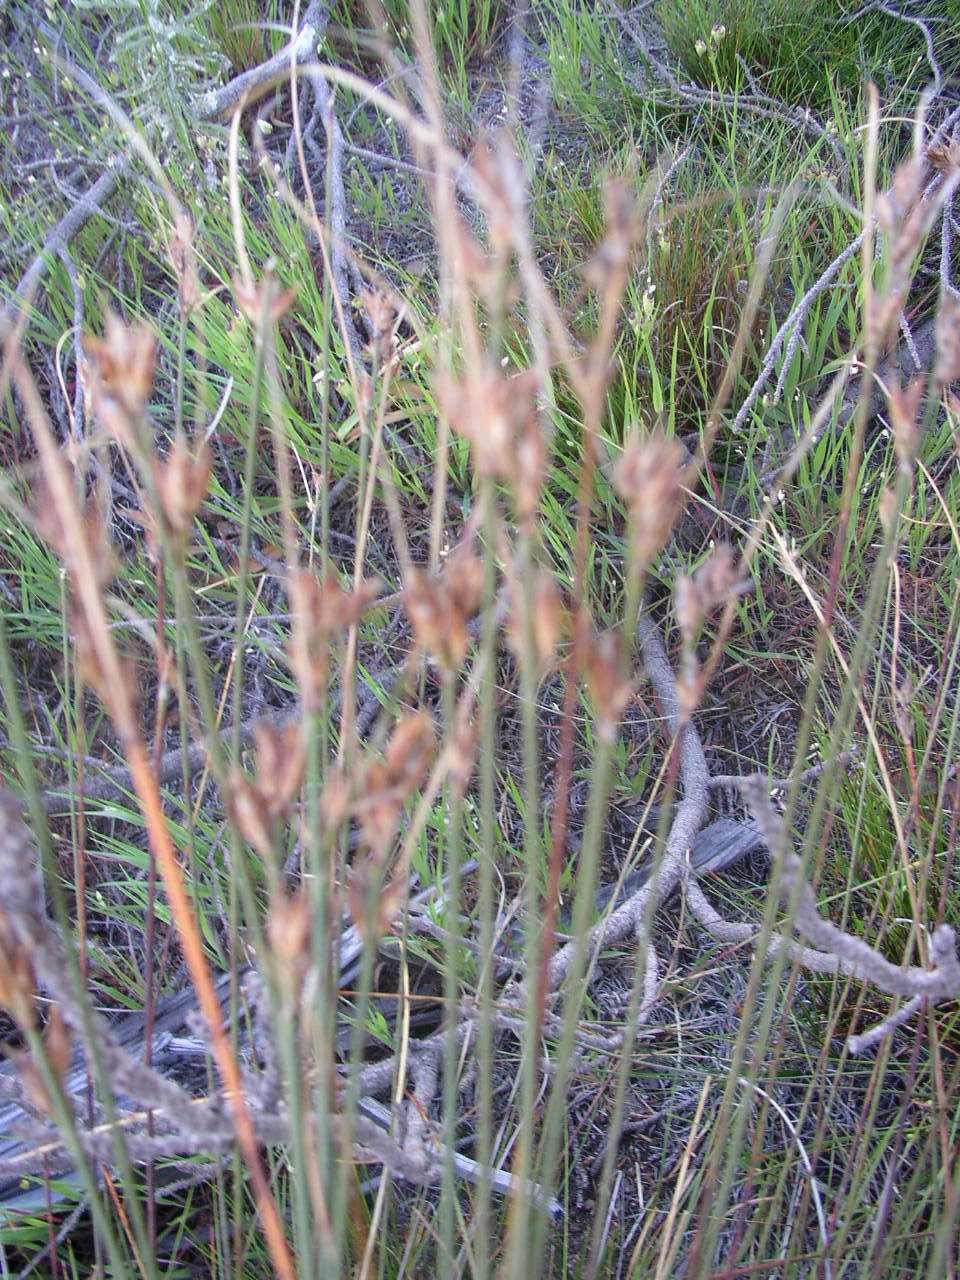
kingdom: Plantae
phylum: Tracheophyta
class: Liliopsida
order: Poales
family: Restionaceae
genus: Restio
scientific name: Restio capensis
